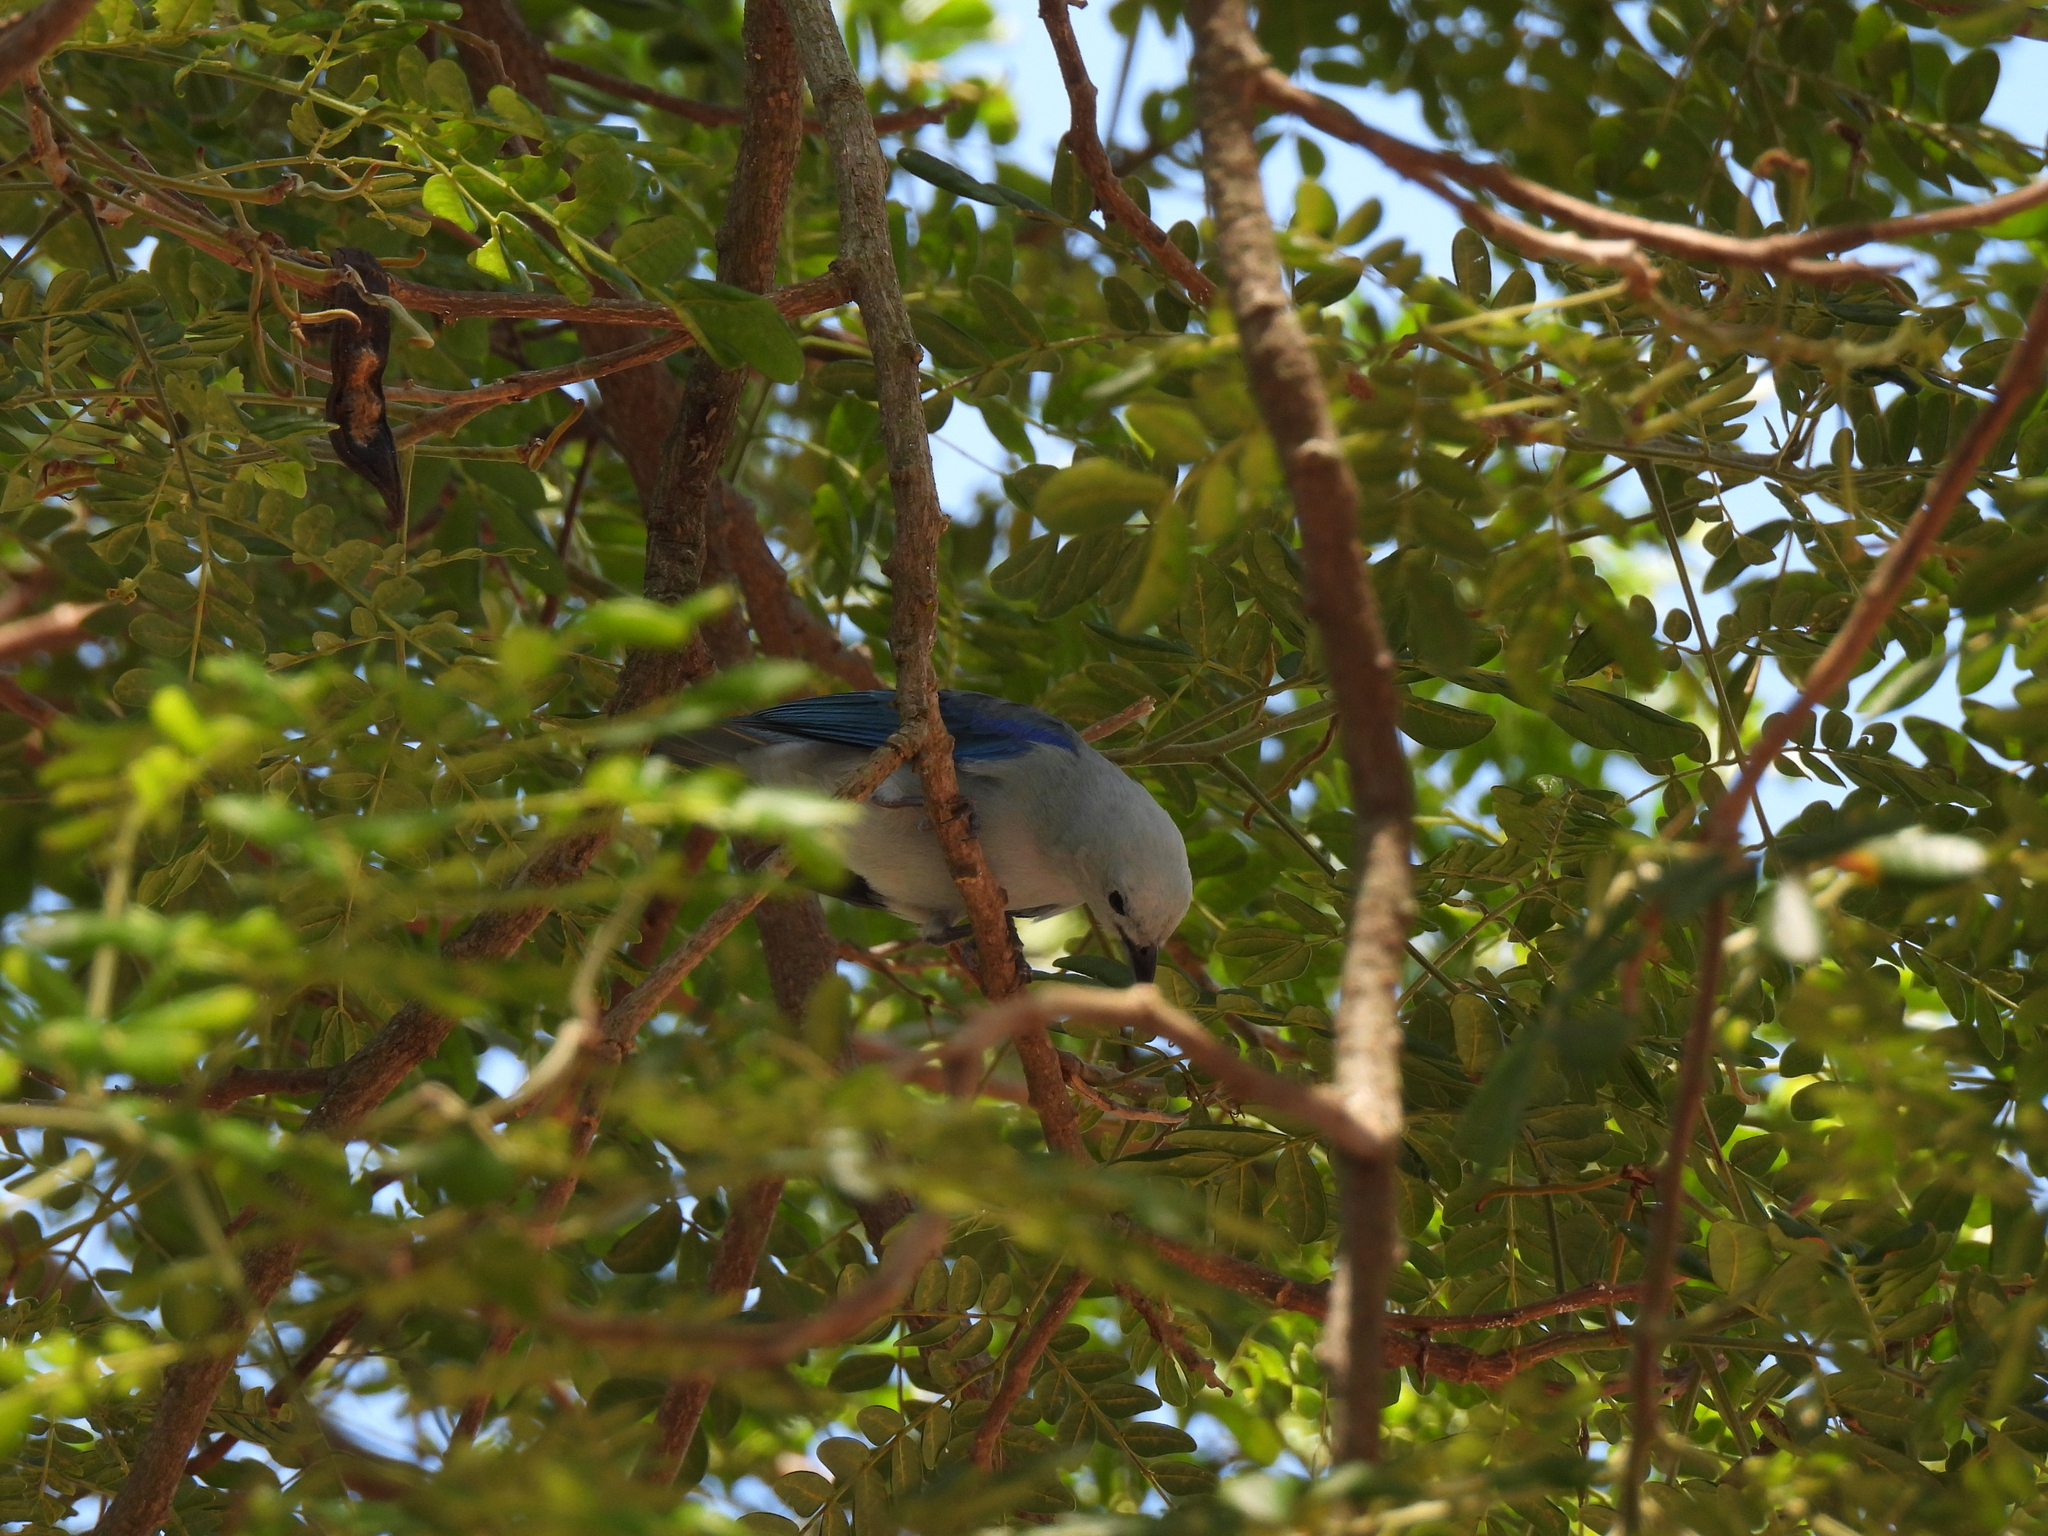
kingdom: Animalia
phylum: Chordata
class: Aves
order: Passeriformes
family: Thraupidae
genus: Thraupis
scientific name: Thraupis episcopus
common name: Blue-grey tanager
